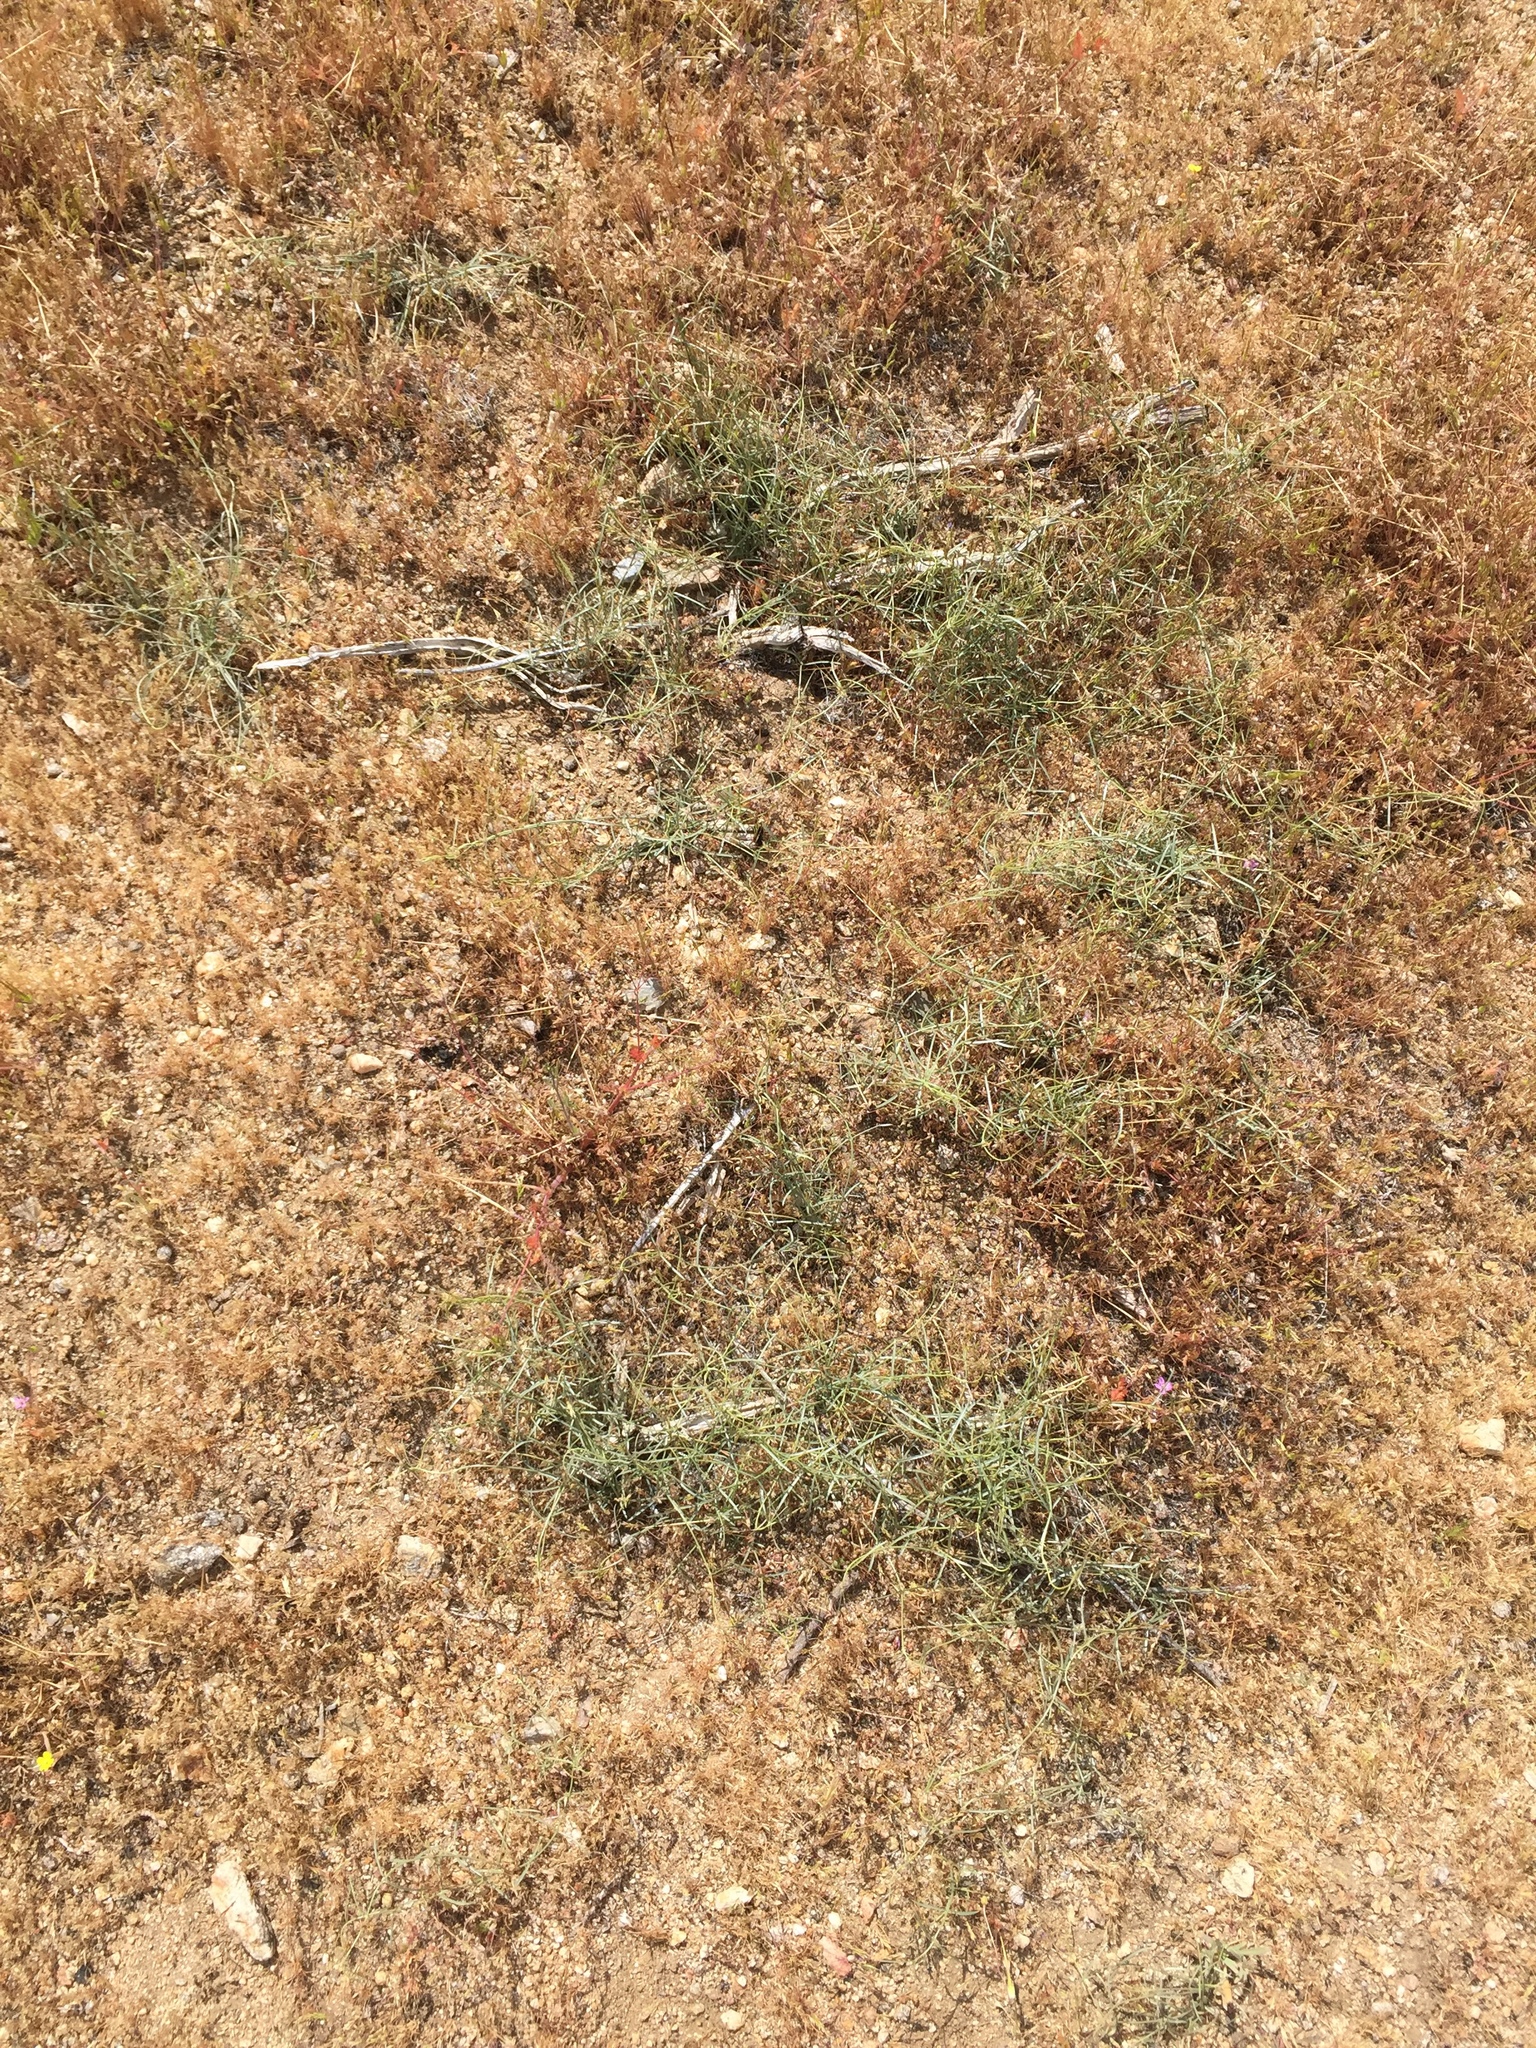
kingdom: Plantae
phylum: Tracheophyta
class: Magnoliopsida
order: Gentianales
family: Apocynaceae
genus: Funastrum
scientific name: Funastrum utahense
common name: Utah swallow-wort
